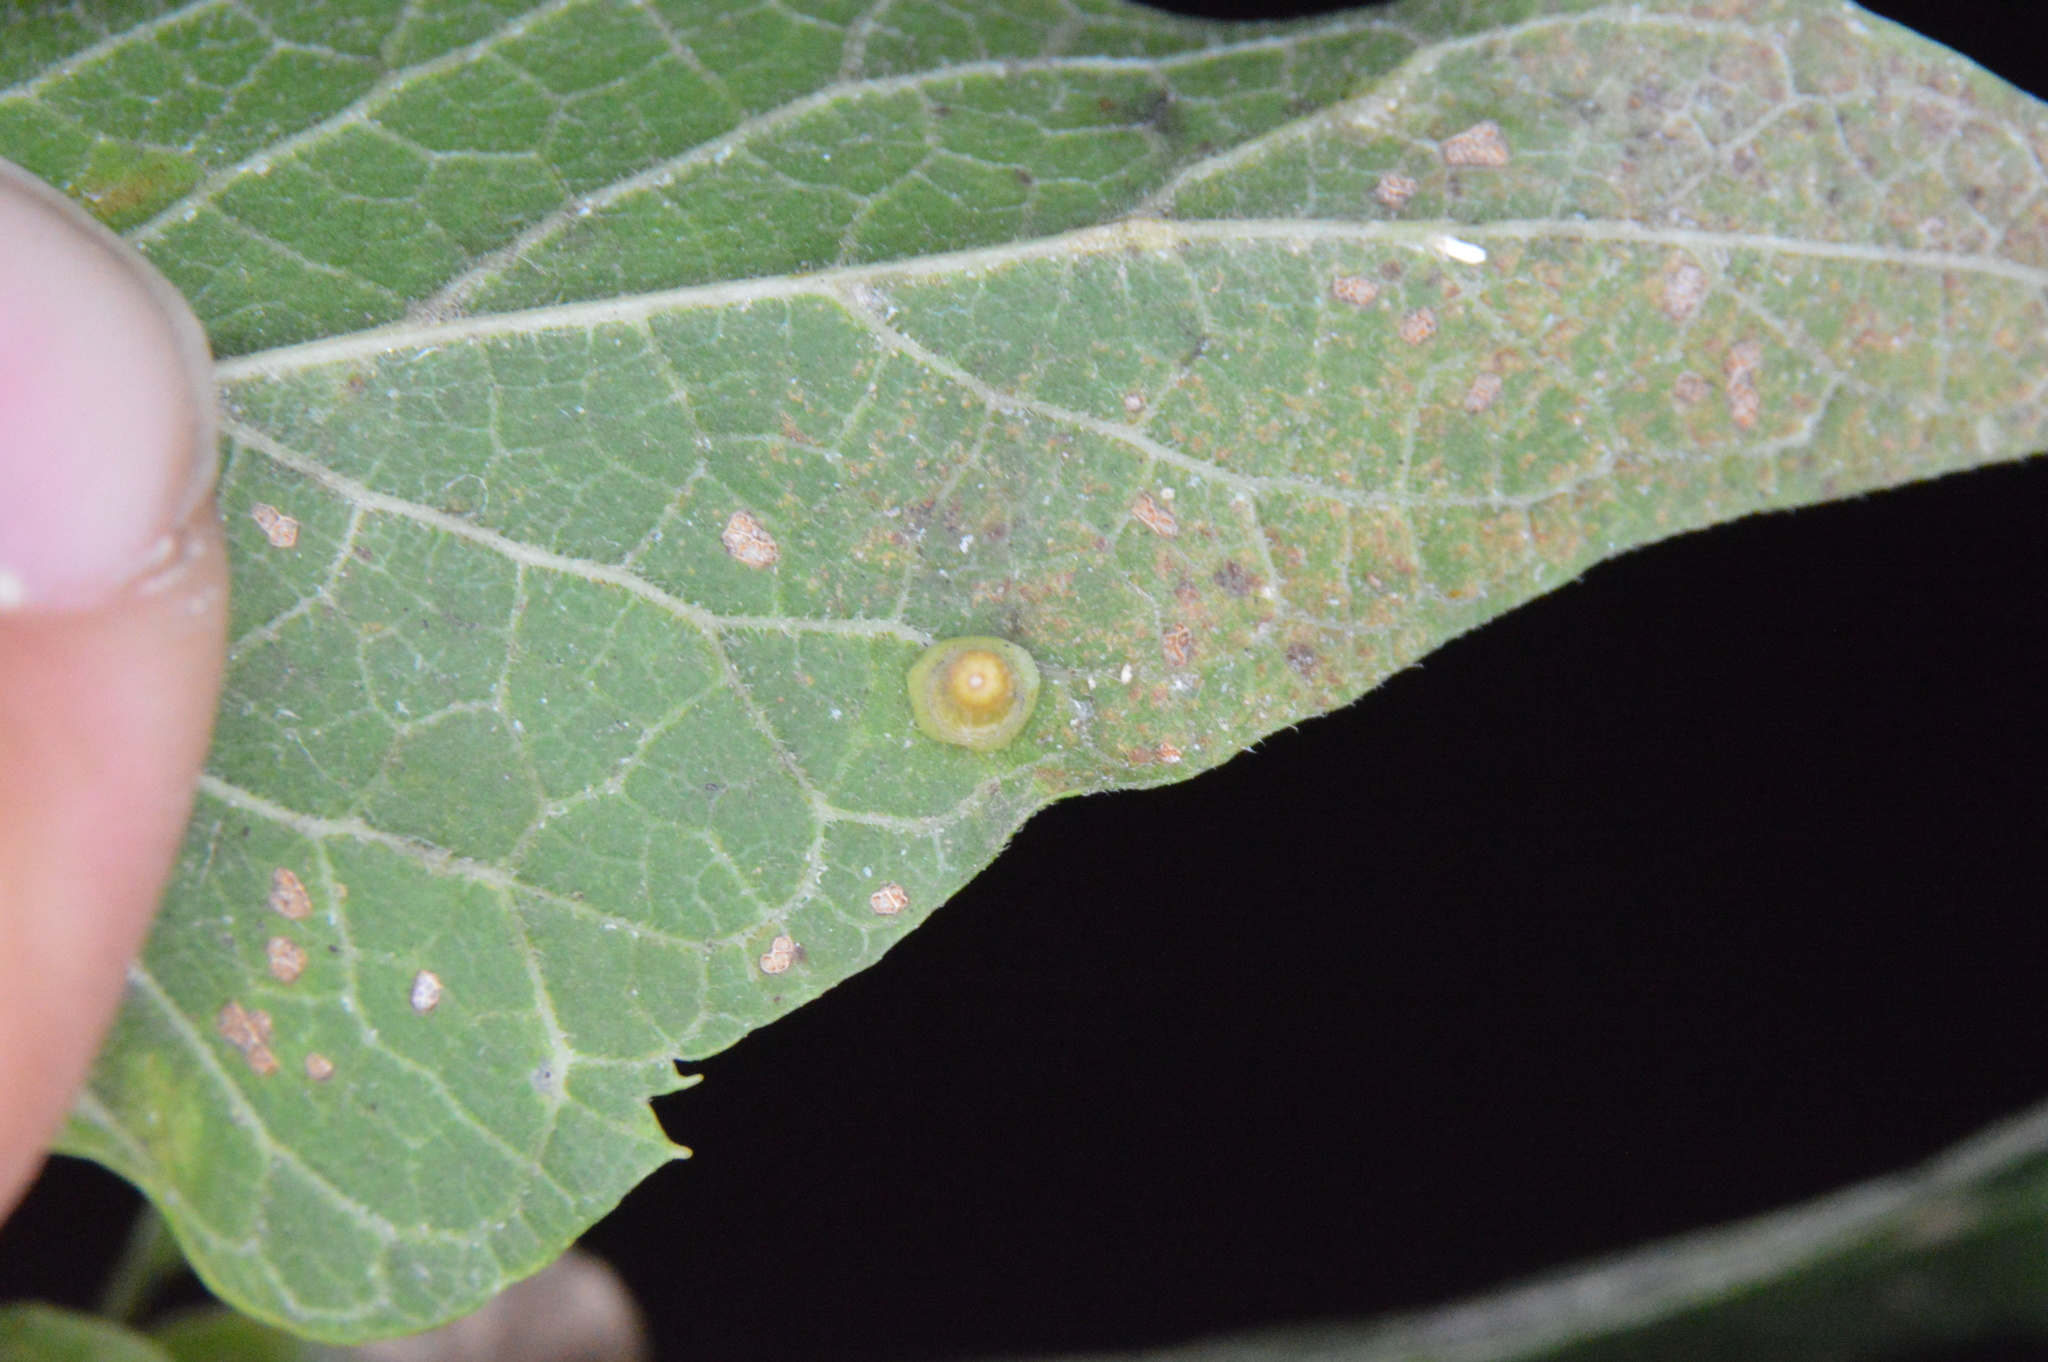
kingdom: Animalia
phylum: Arthropoda
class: Insecta
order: Diptera
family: Cecidomyiidae
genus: Celticecis
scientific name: Celticecis aciculata
